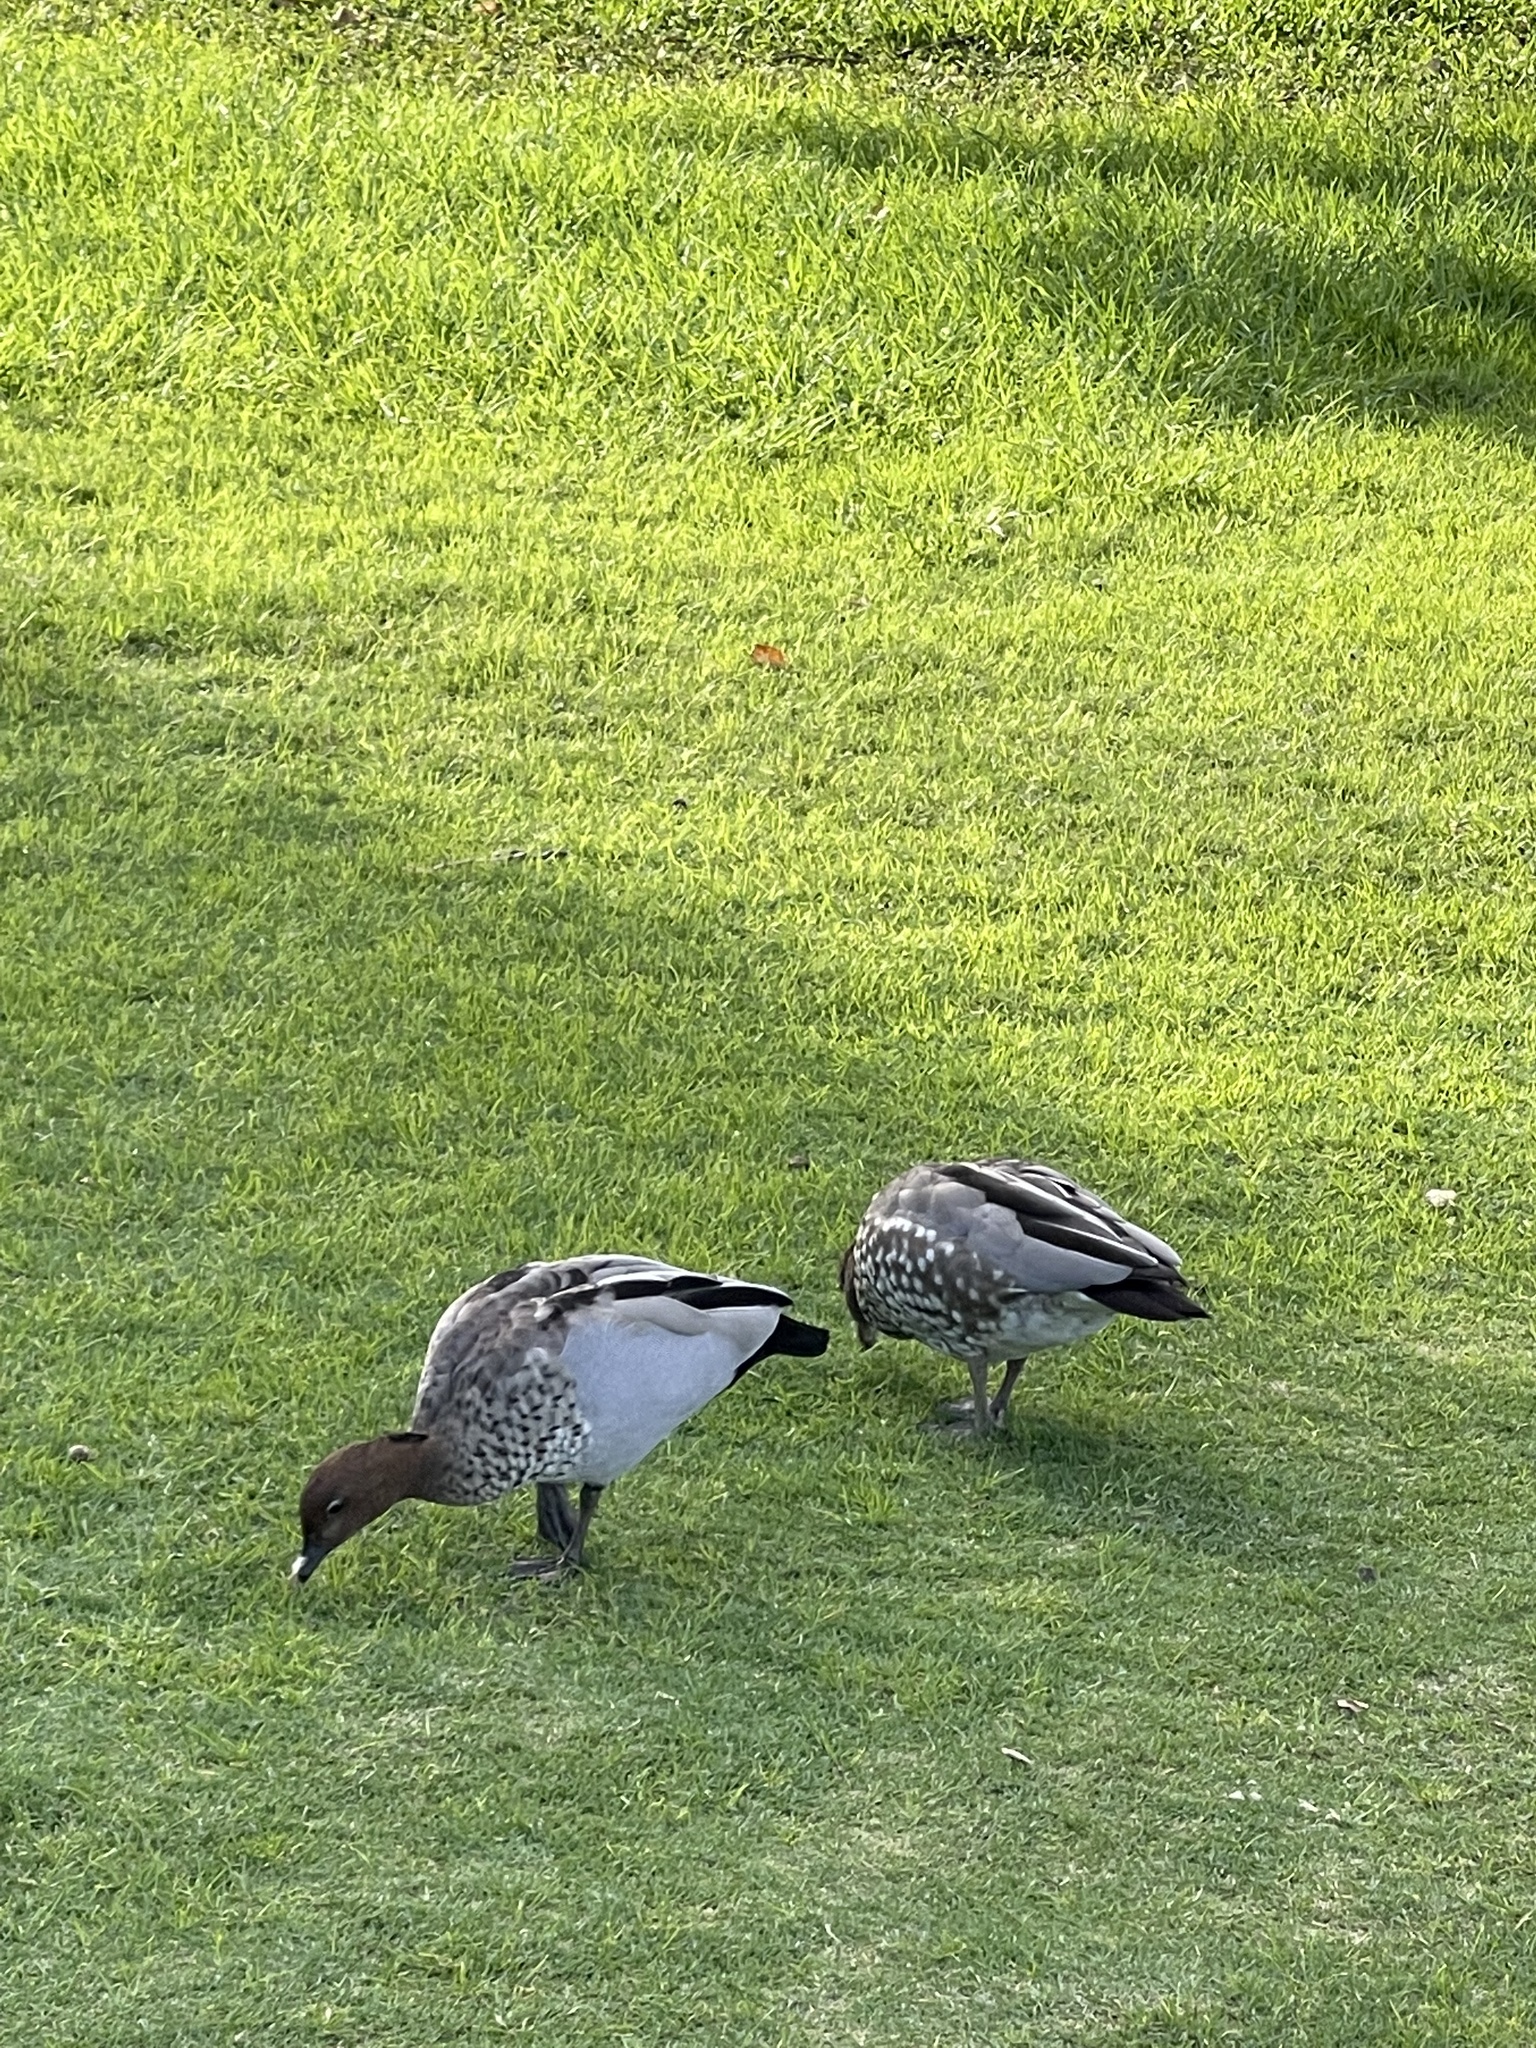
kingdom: Animalia
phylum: Chordata
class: Aves
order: Anseriformes
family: Anatidae
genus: Chenonetta
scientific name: Chenonetta jubata
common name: Maned duck
